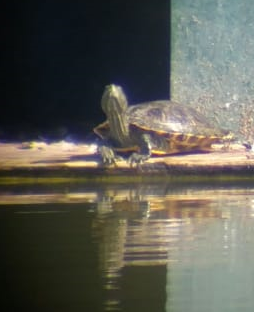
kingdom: Animalia
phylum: Chordata
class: Testudines
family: Emydidae
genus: Trachemys
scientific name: Trachemys scripta
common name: Slider
